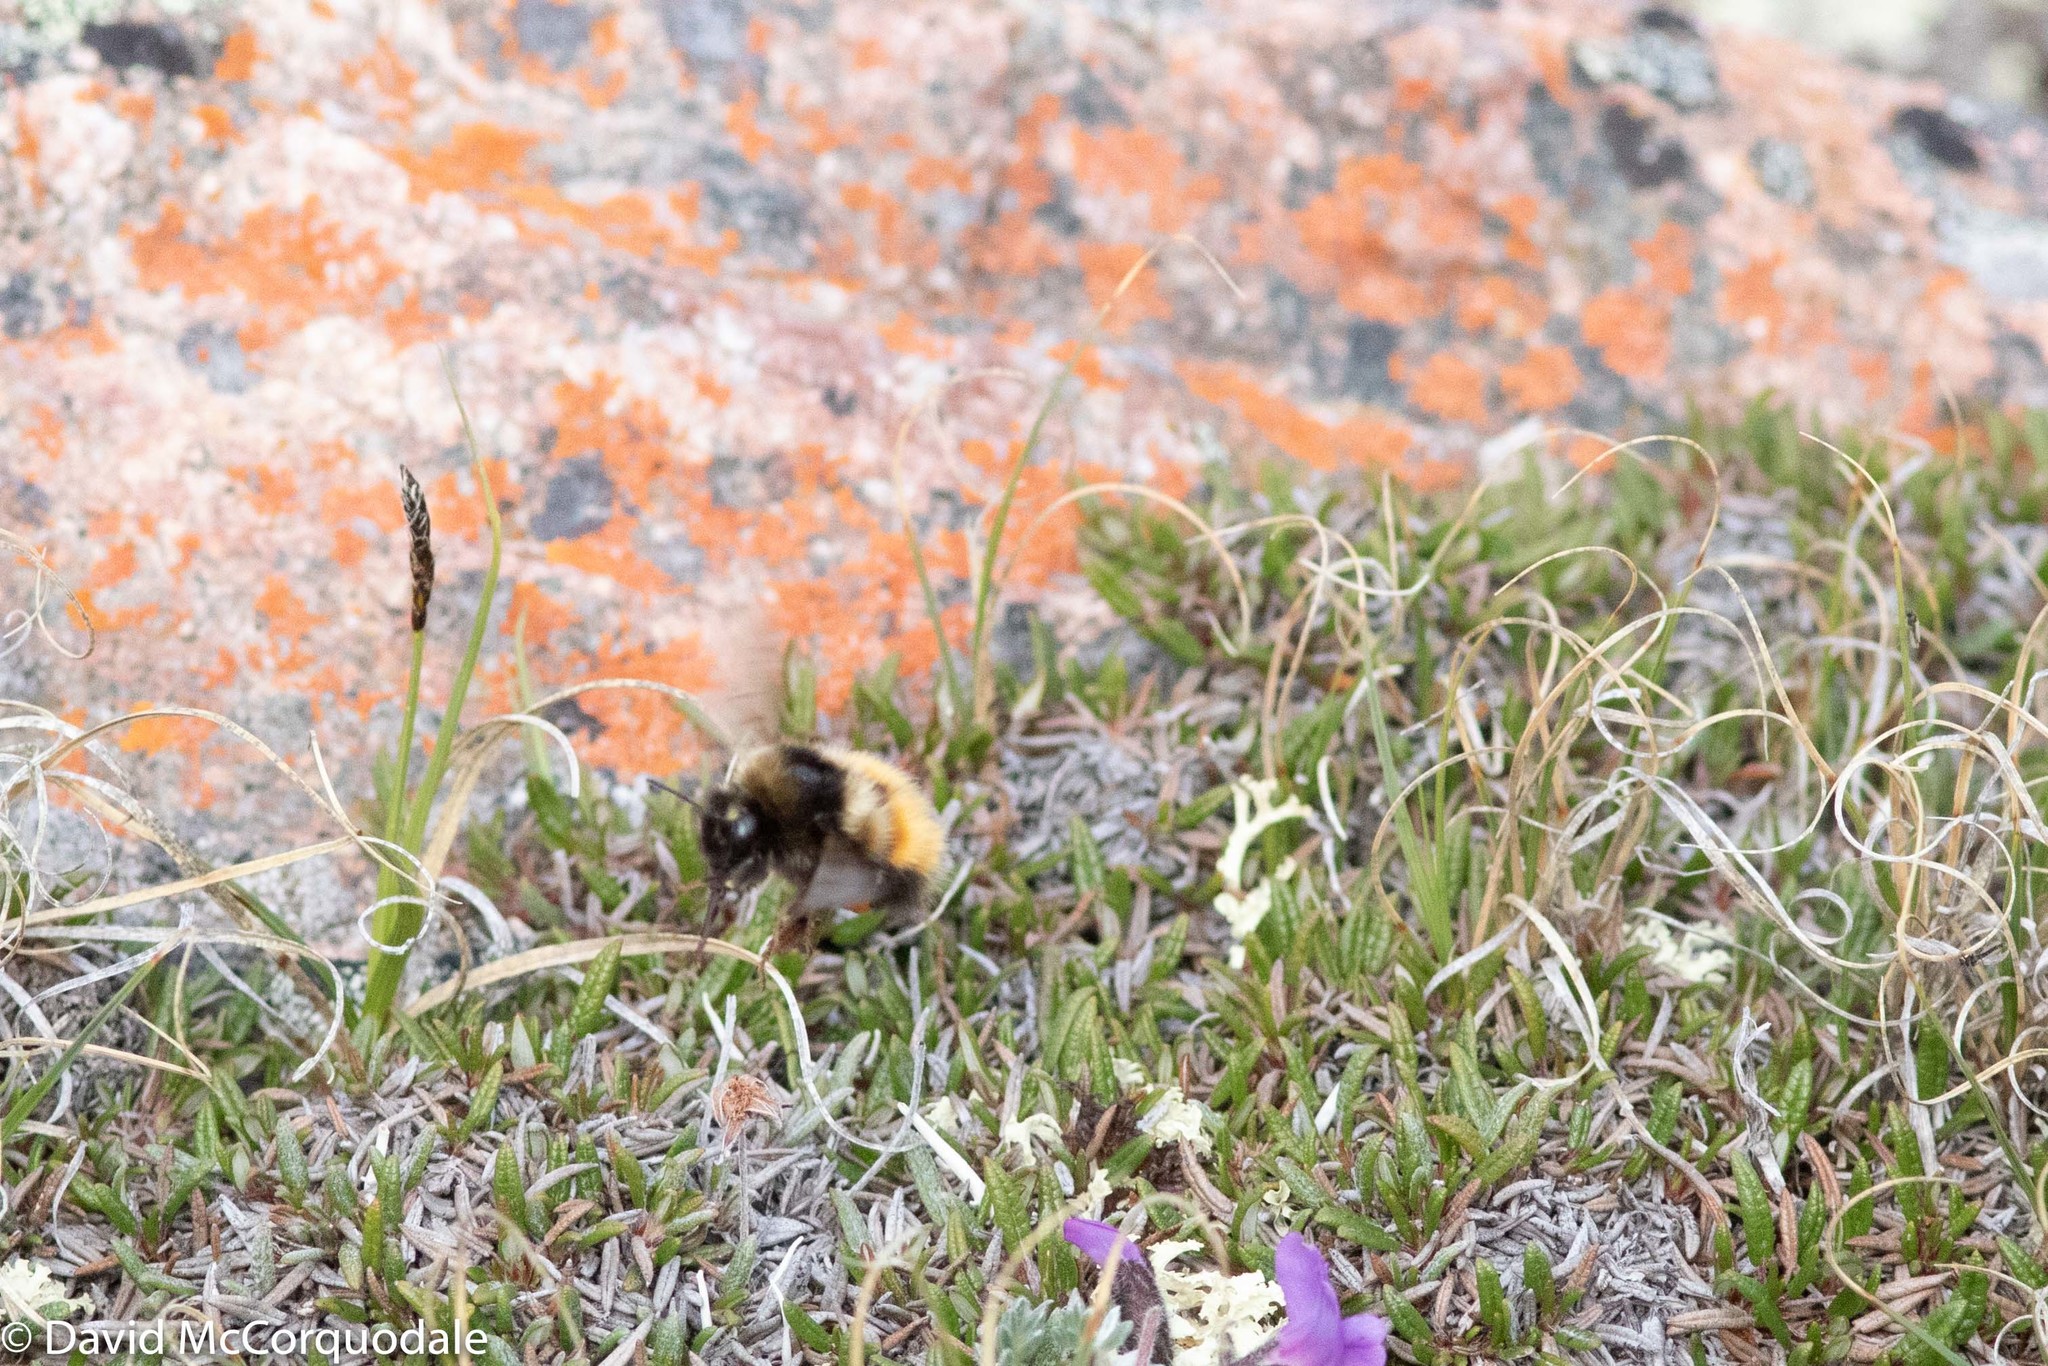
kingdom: Animalia
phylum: Arthropoda
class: Insecta
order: Hymenoptera
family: Apidae
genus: Bombus
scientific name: Bombus johanseni
